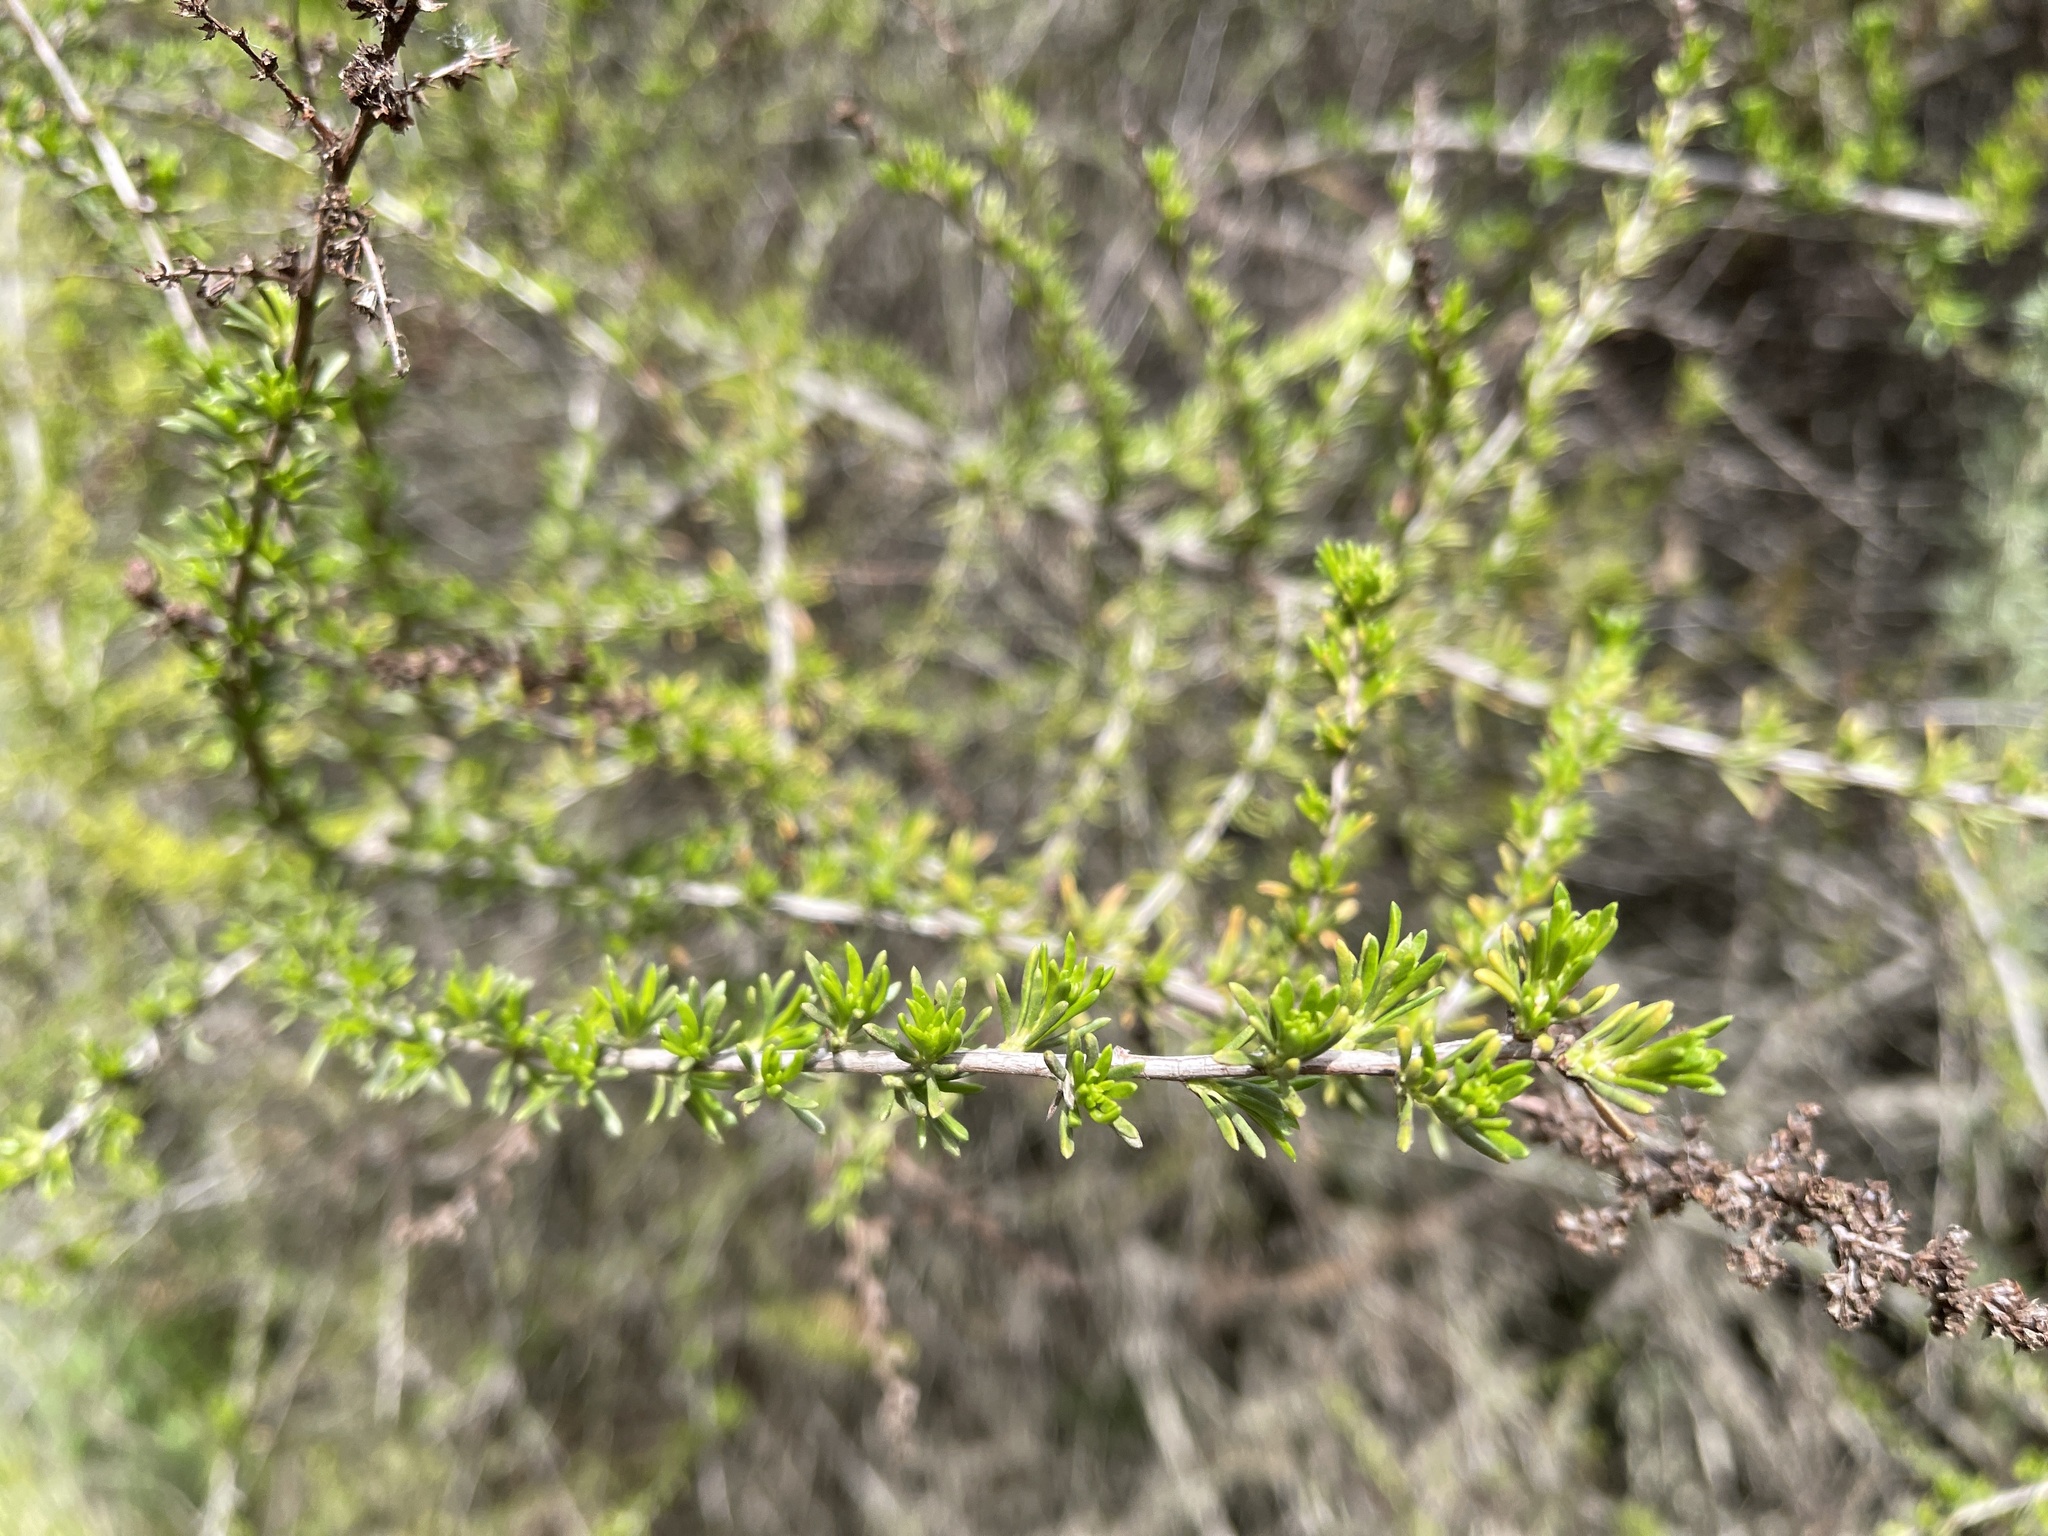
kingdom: Plantae
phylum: Tracheophyta
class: Magnoliopsida
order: Rosales
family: Rosaceae
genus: Adenostoma
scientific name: Adenostoma fasciculatum
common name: Chamise
